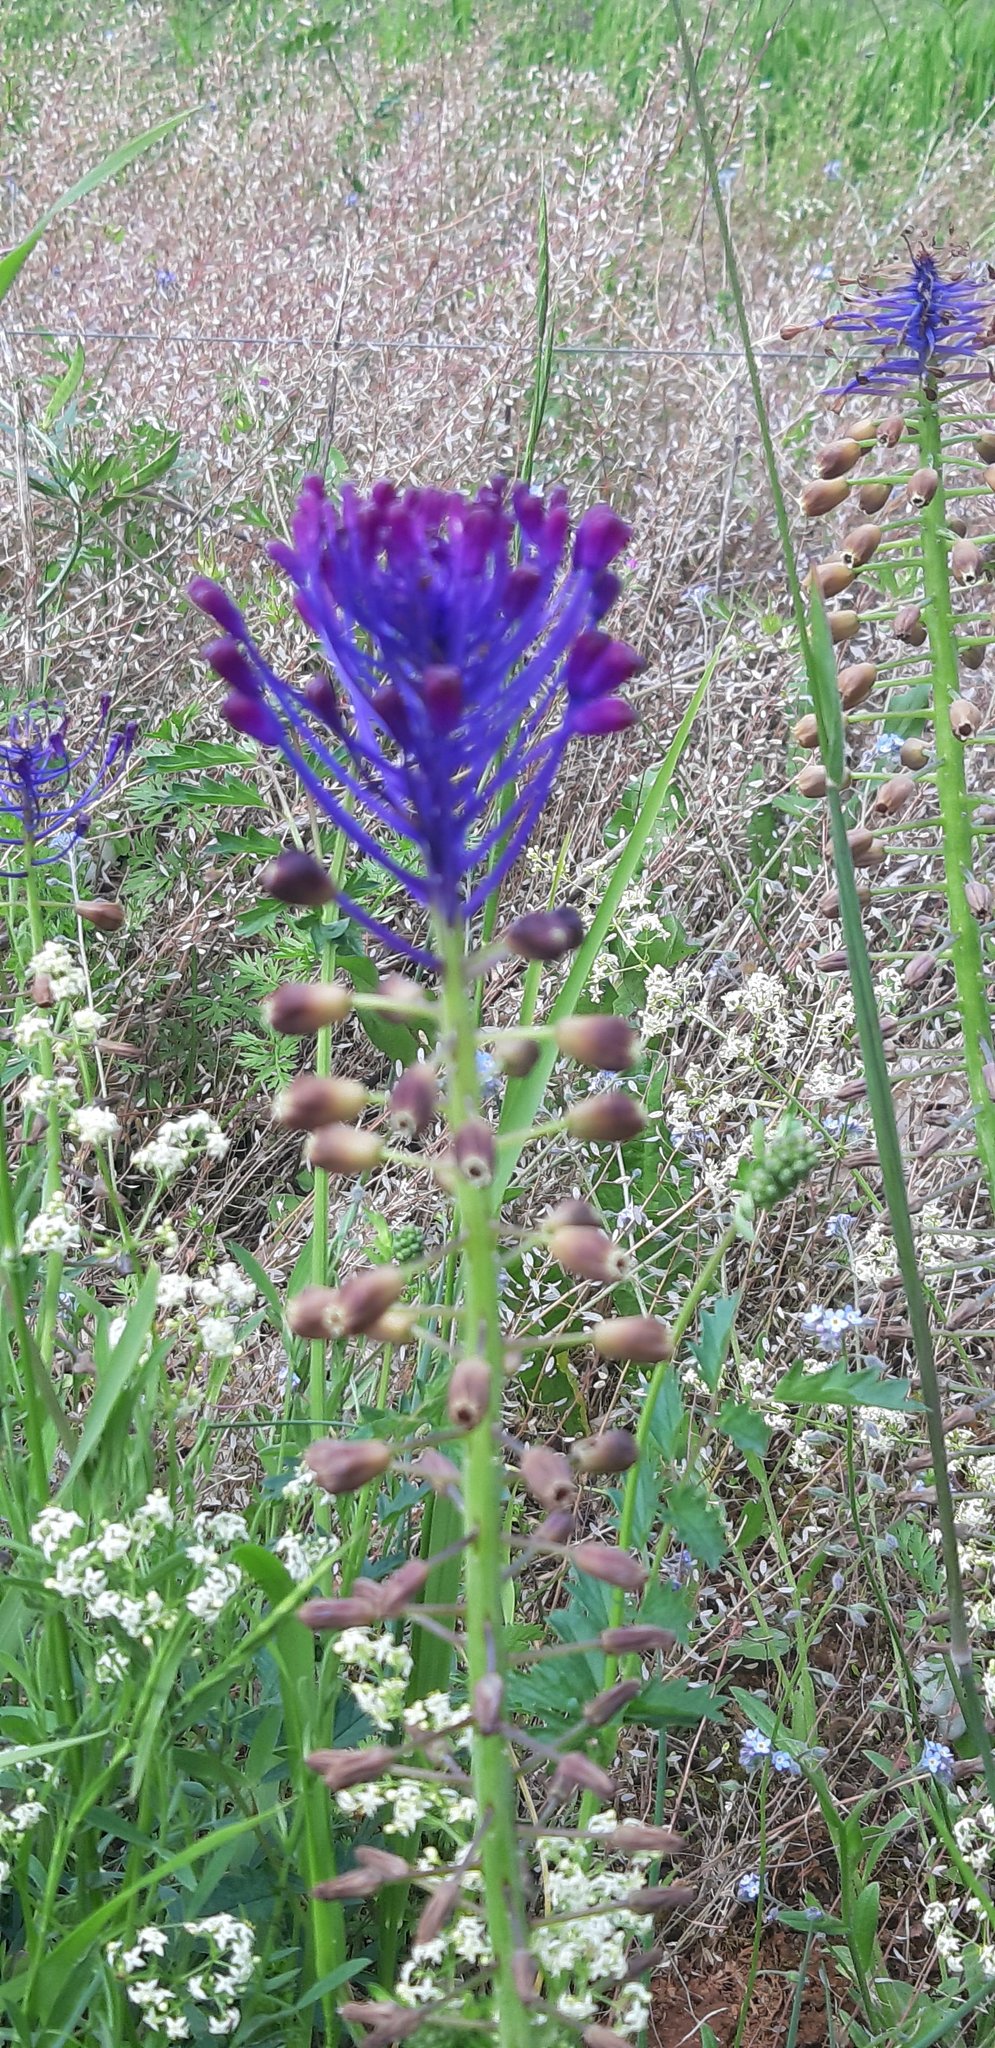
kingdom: Plantae
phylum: Tracheophyta
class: Liliopsida
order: Asparagales
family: Asparagaceae
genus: Muscari
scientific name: Muscari comosum
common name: Tassel hyacinth
